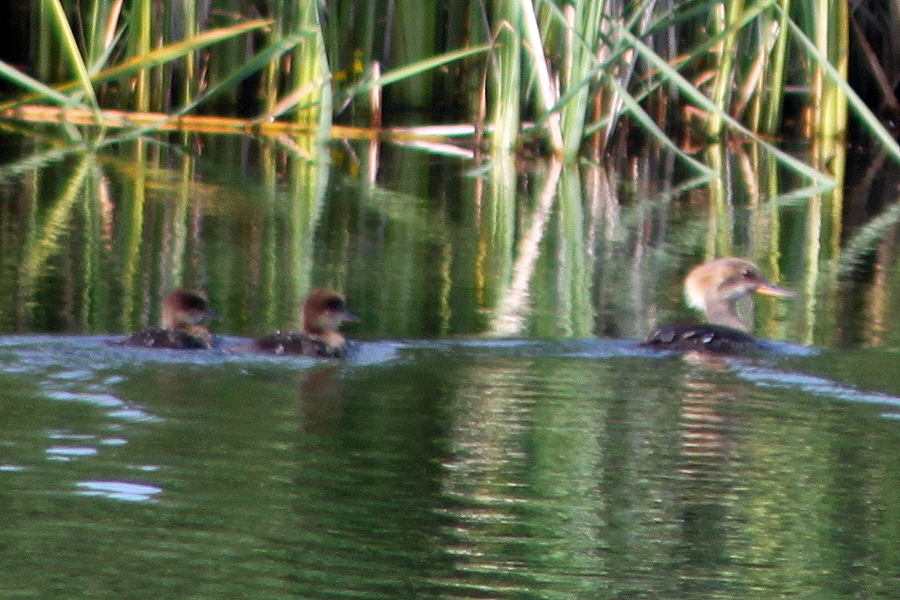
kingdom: Animalia
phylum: Chordata
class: Aves
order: Anseriformes
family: Anatidae
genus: Lophodytes
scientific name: Lophodytes cucullatus
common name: Hooded merganser
